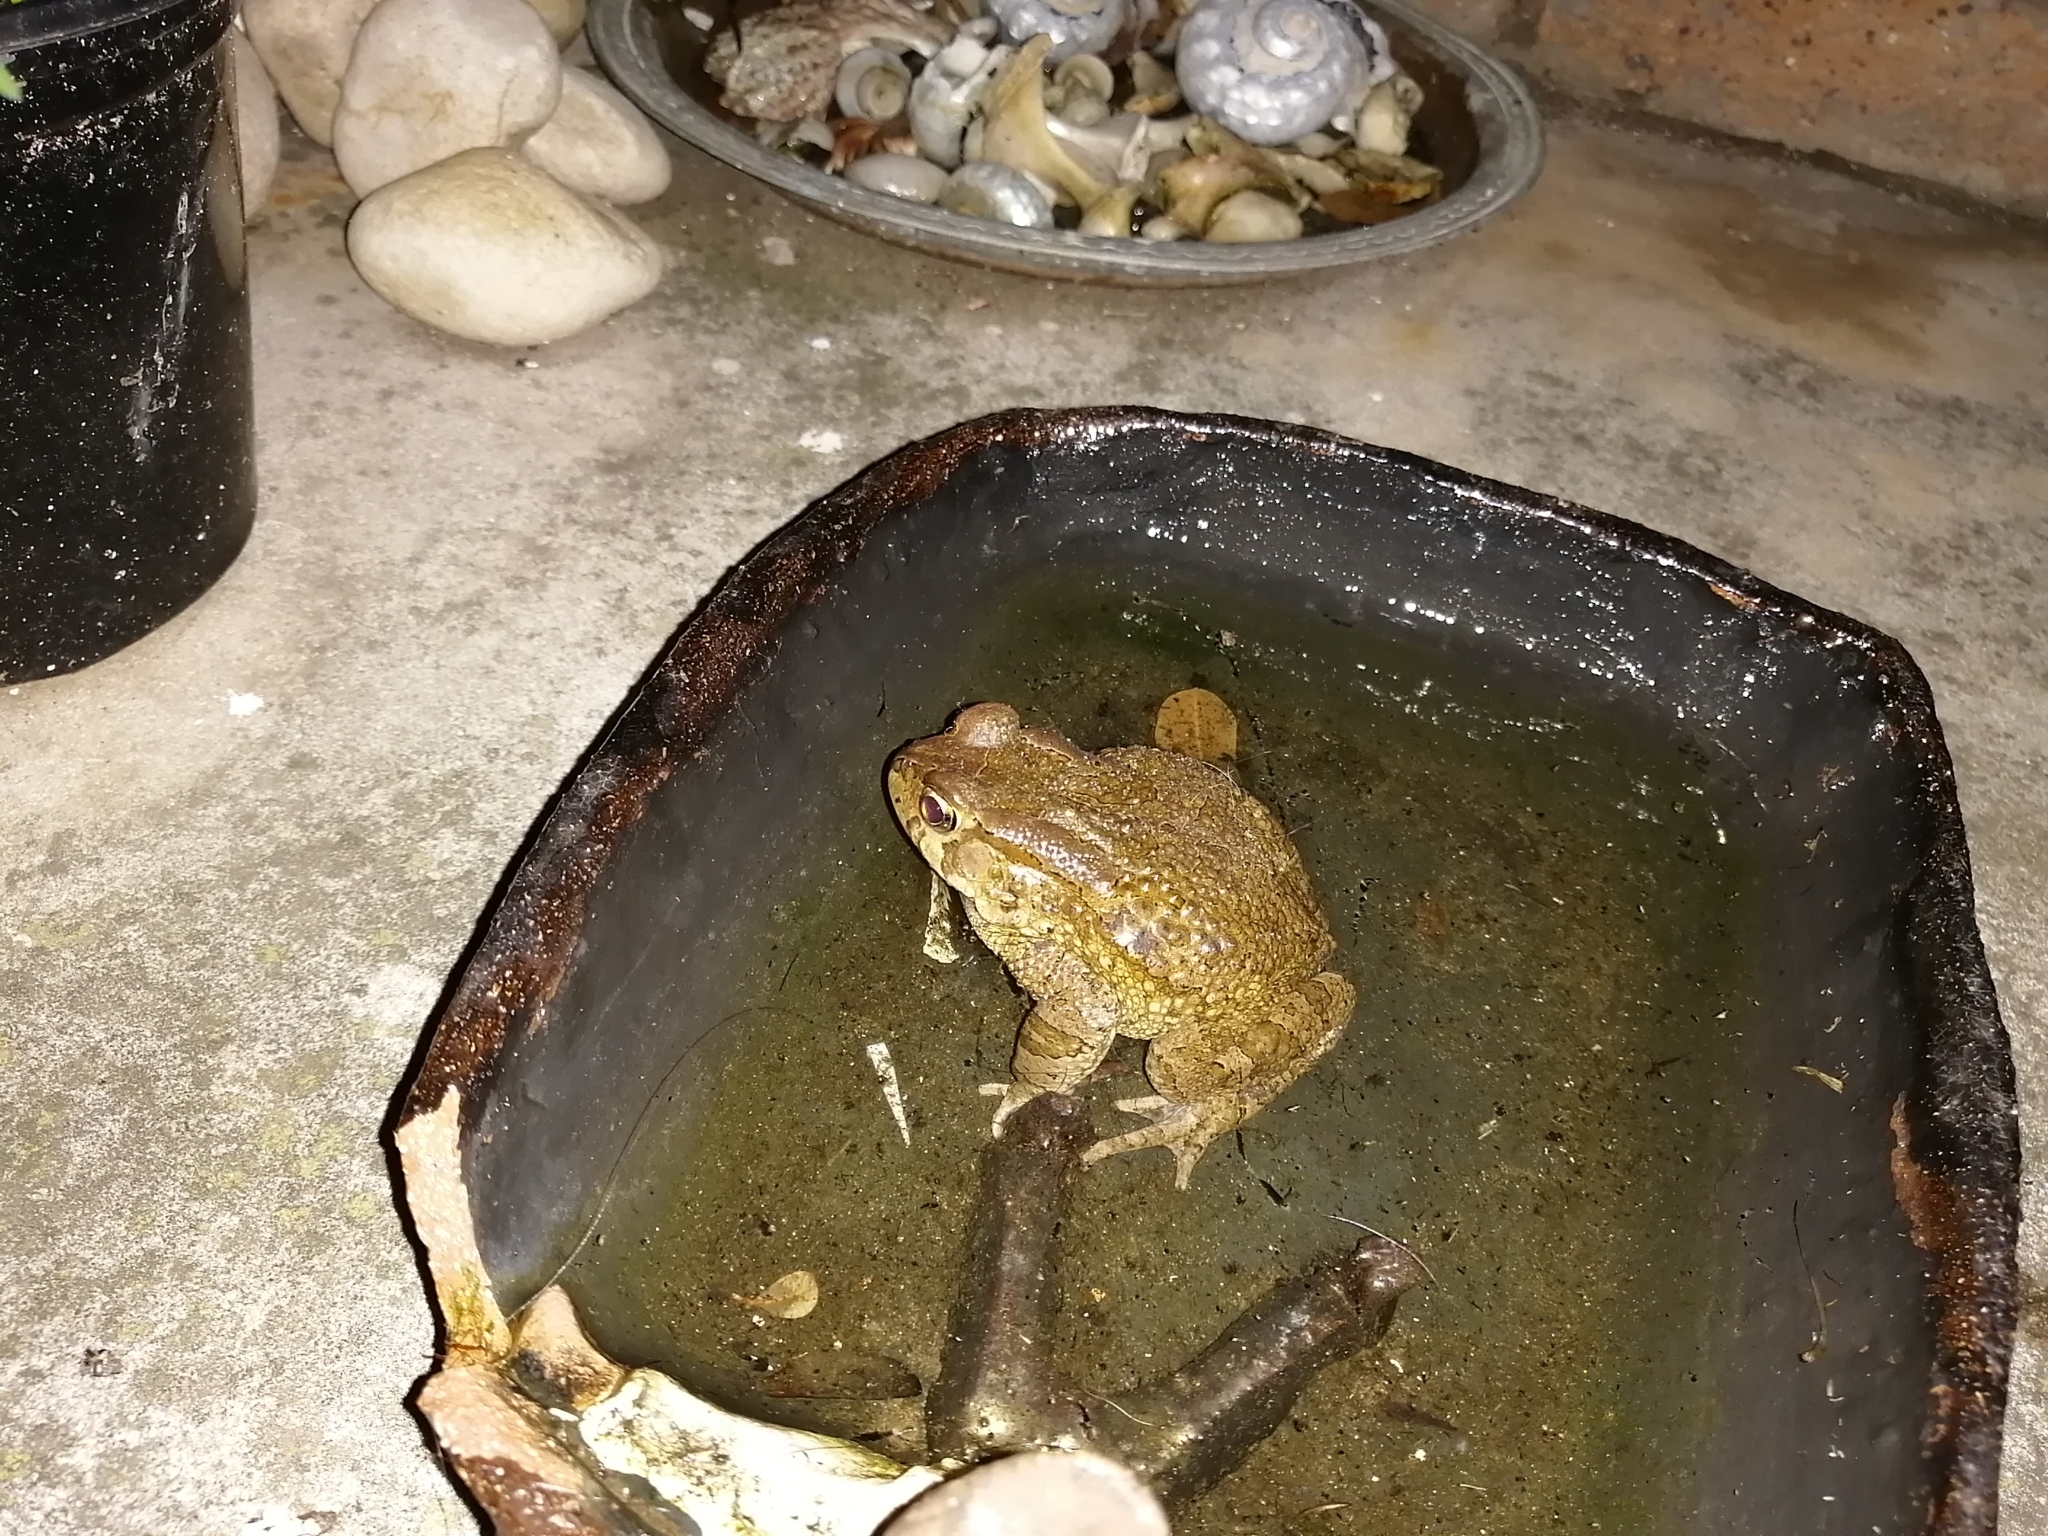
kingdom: Animalia
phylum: Chordata
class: Amphibia
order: Anura
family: Bufonidae
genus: Sclerophrys
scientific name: Sclerophrys capensis
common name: Ranger’s toad
